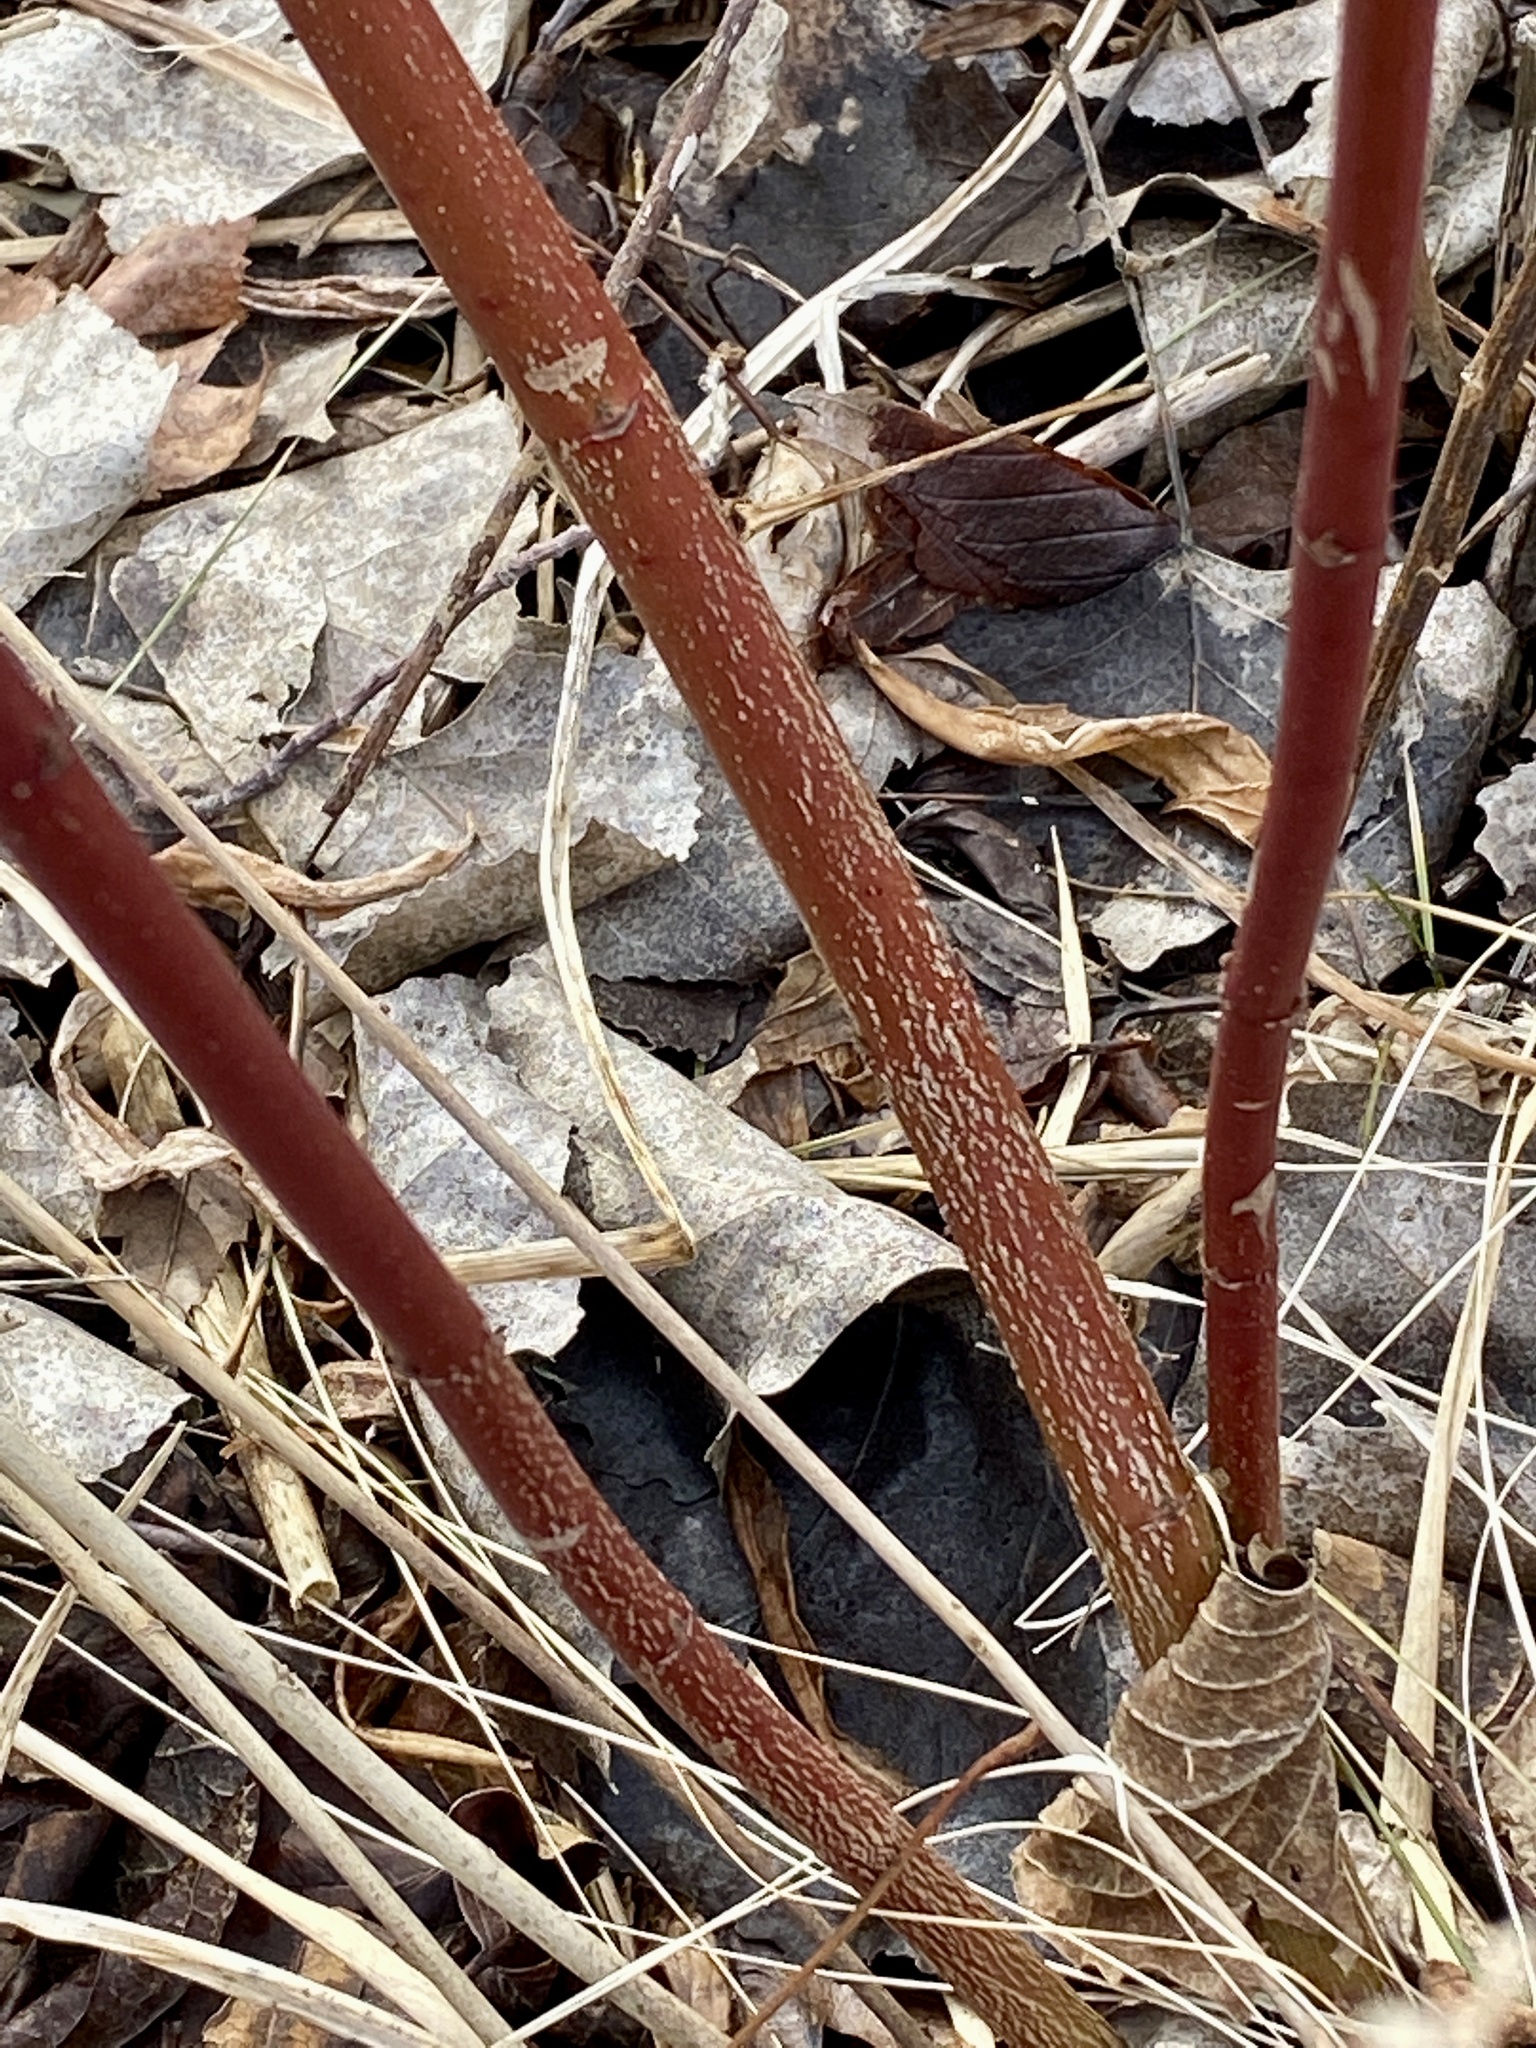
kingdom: Plantae
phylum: Tracheophyta
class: Magnoliopsida
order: Cornales
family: Cornaceae
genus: Cornus
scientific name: Cornus amomum
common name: Silky dogwood
